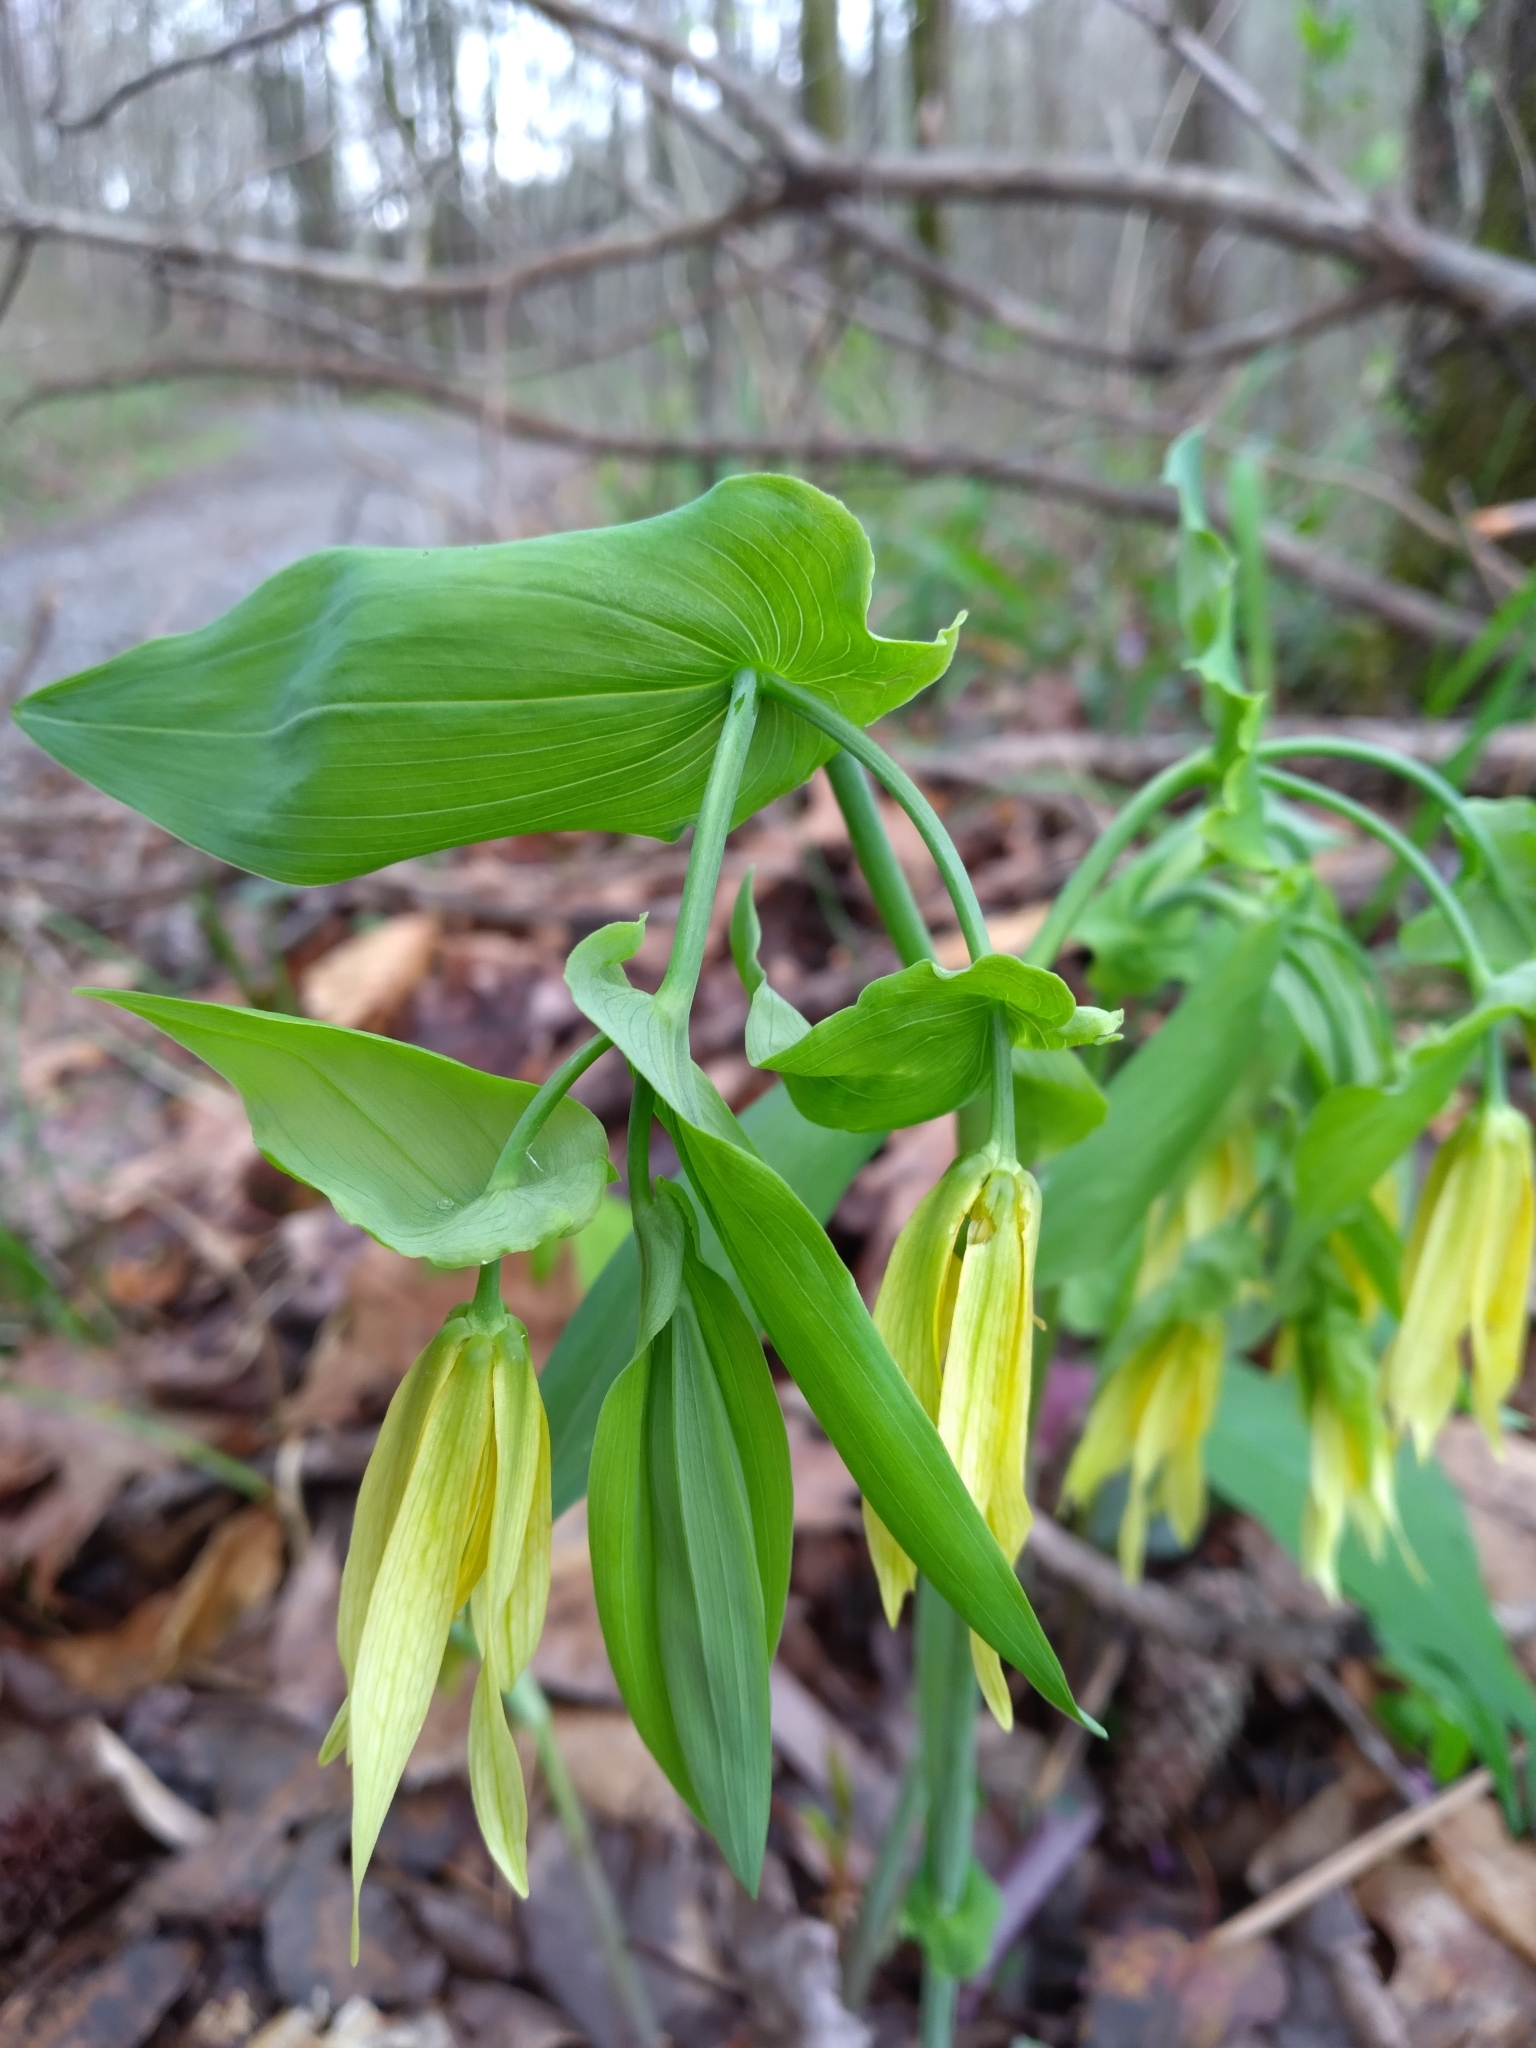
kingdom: Plantae
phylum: Tracheophyta
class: Liliopsida
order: Liliales
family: Colchicaceae
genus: Uvularia
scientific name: Uvularia grandiflora
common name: Bellwort
